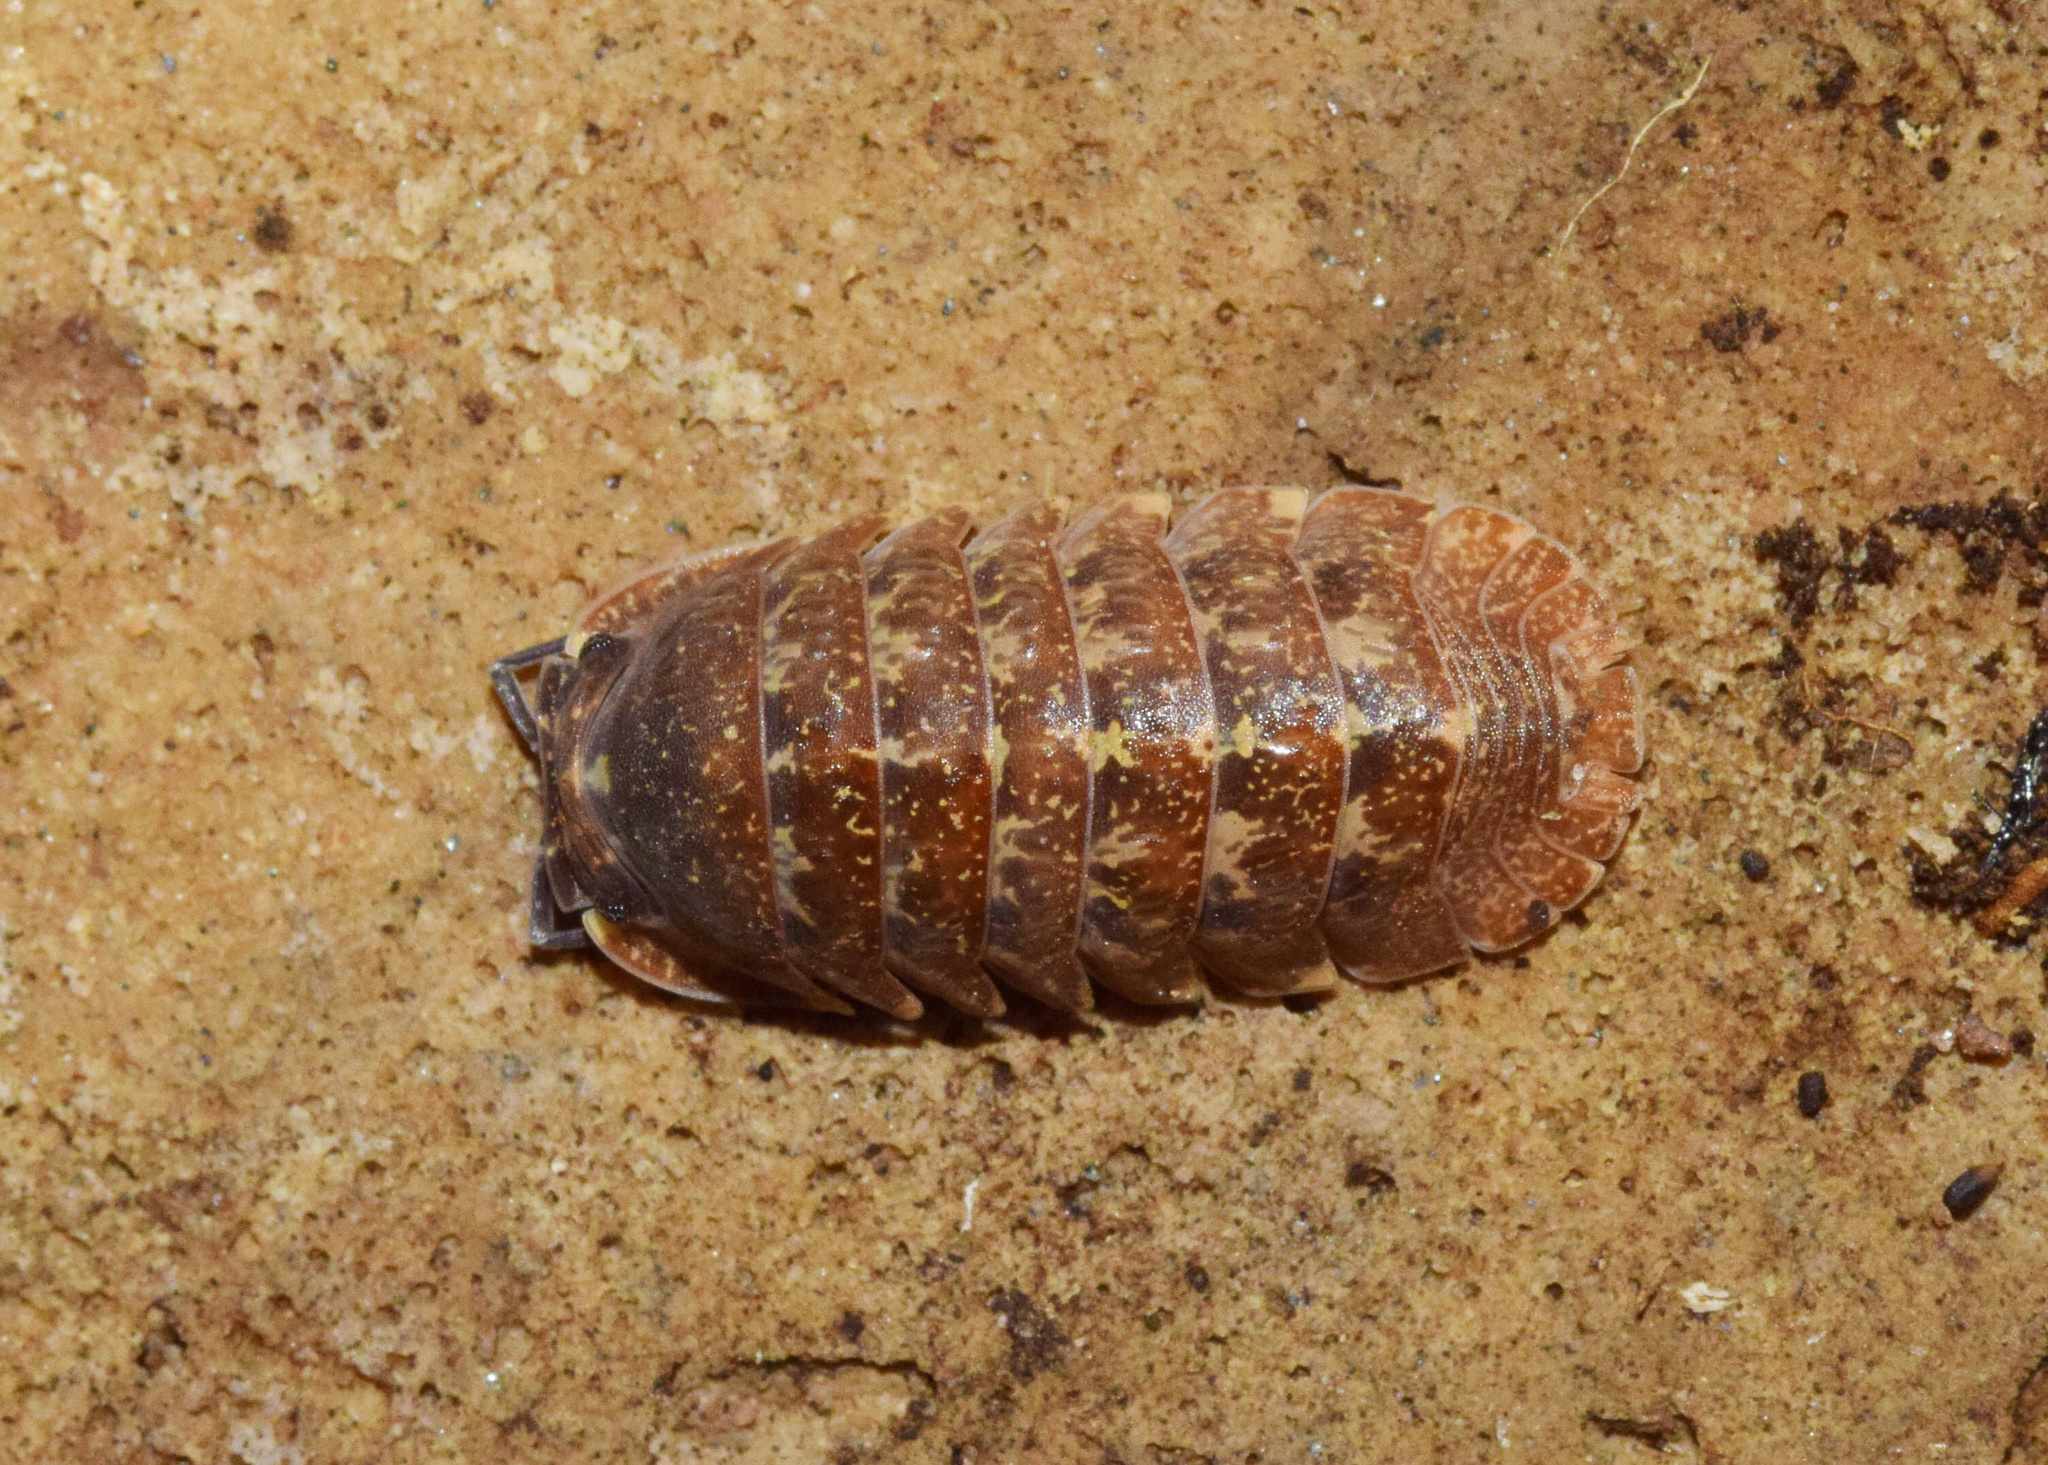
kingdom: Animalia
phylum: Arthropoda
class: Malacostraca
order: Isopoda
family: Armadillidae
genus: Barnardillo
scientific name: Barnardillo barnardi
